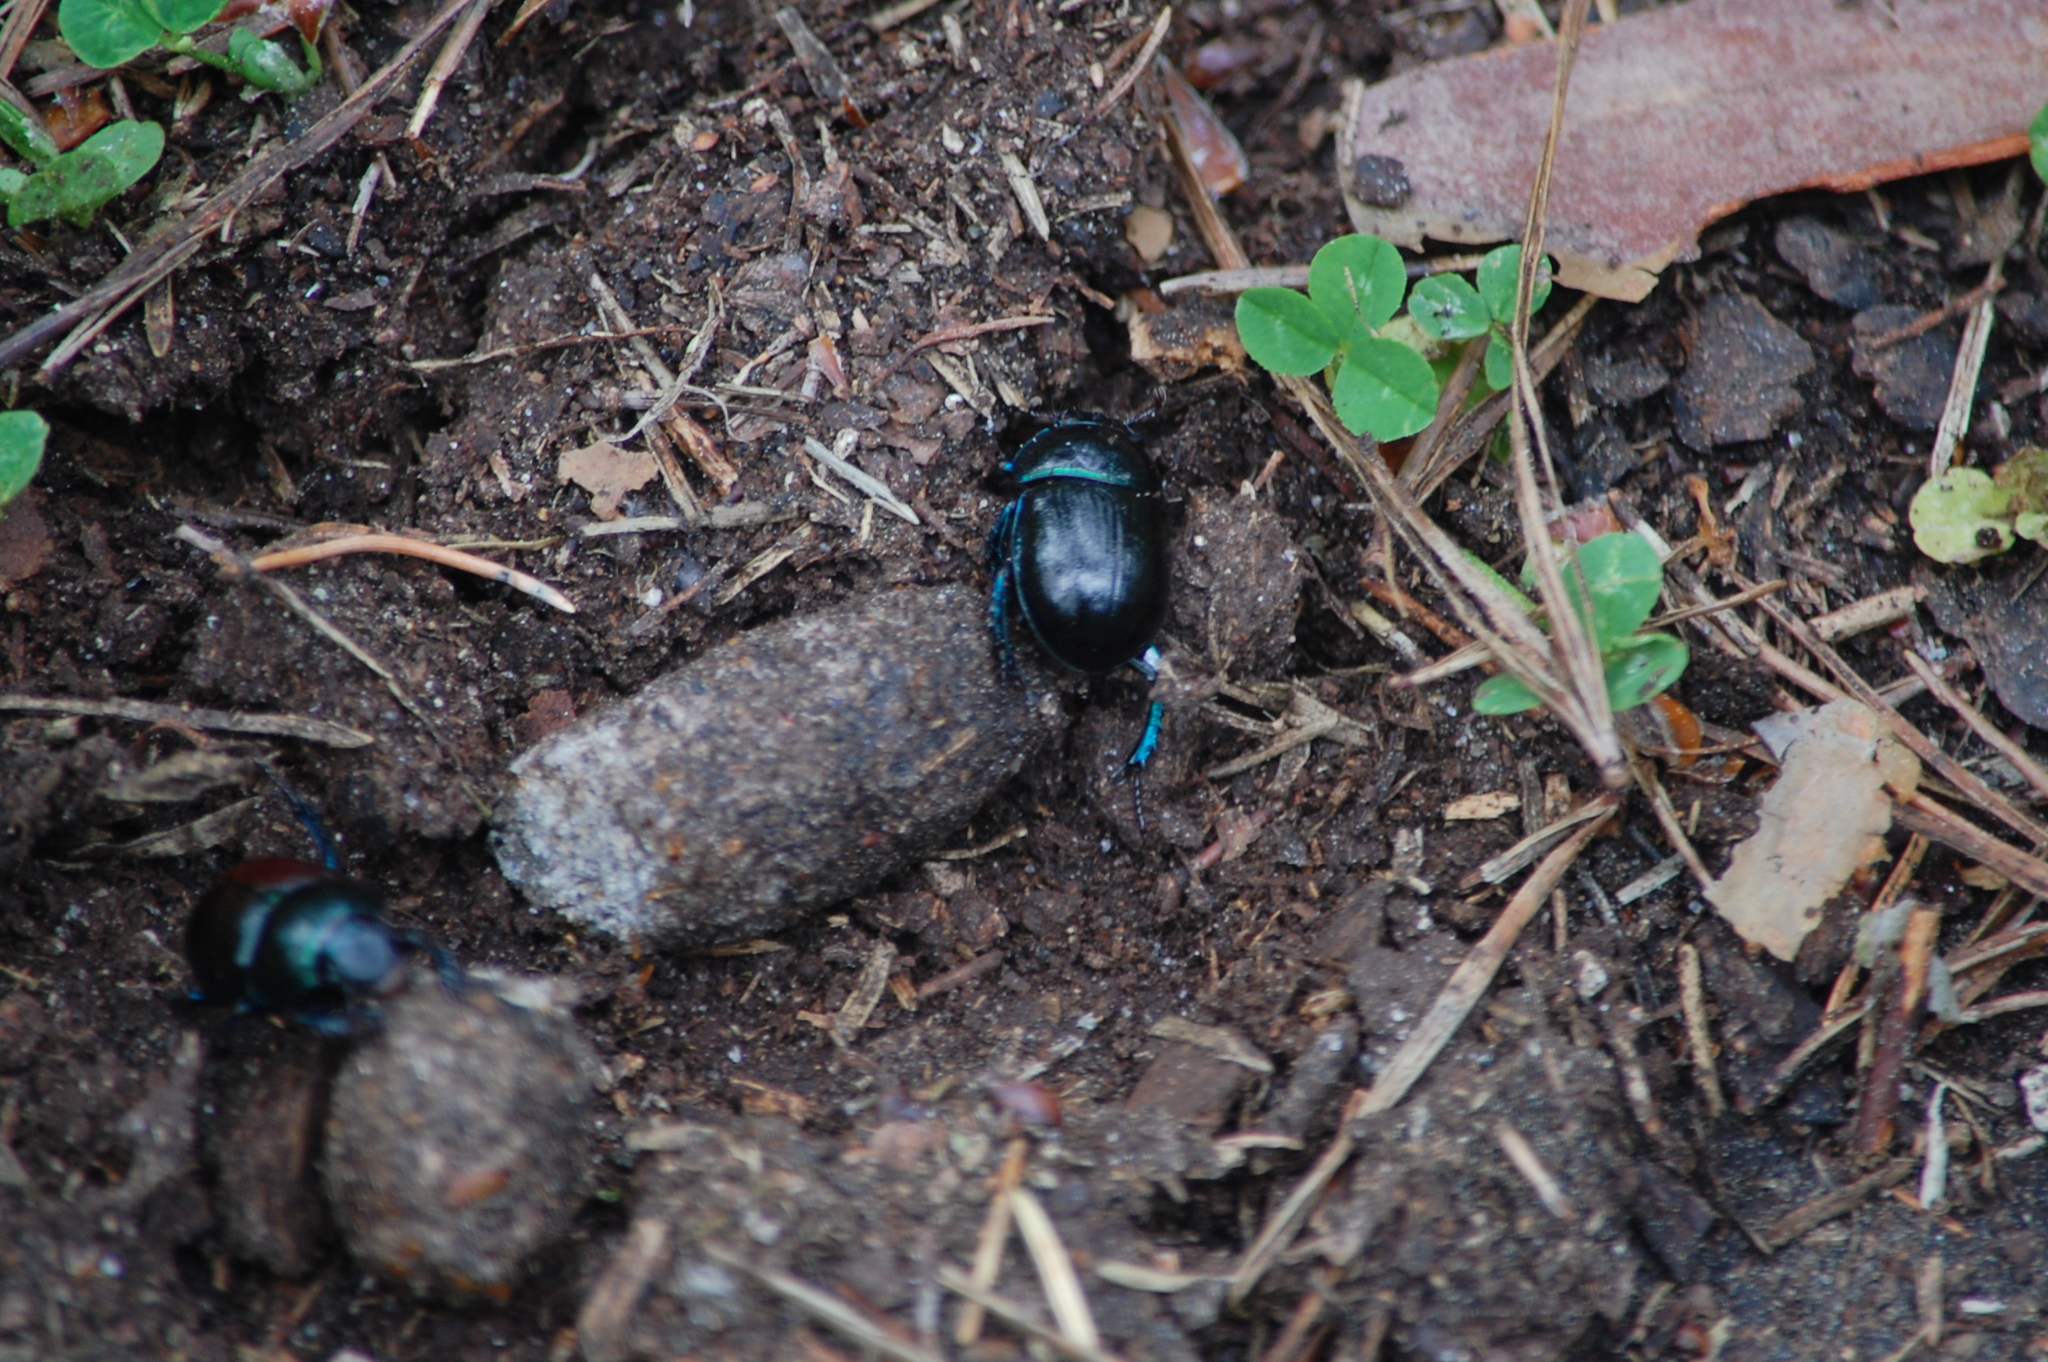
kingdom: Animalia
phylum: Arthropoda
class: Insecta
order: Coleoptera
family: Geotrupidae
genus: Anoplotrupes
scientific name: Anoplotrupes stercorosus
